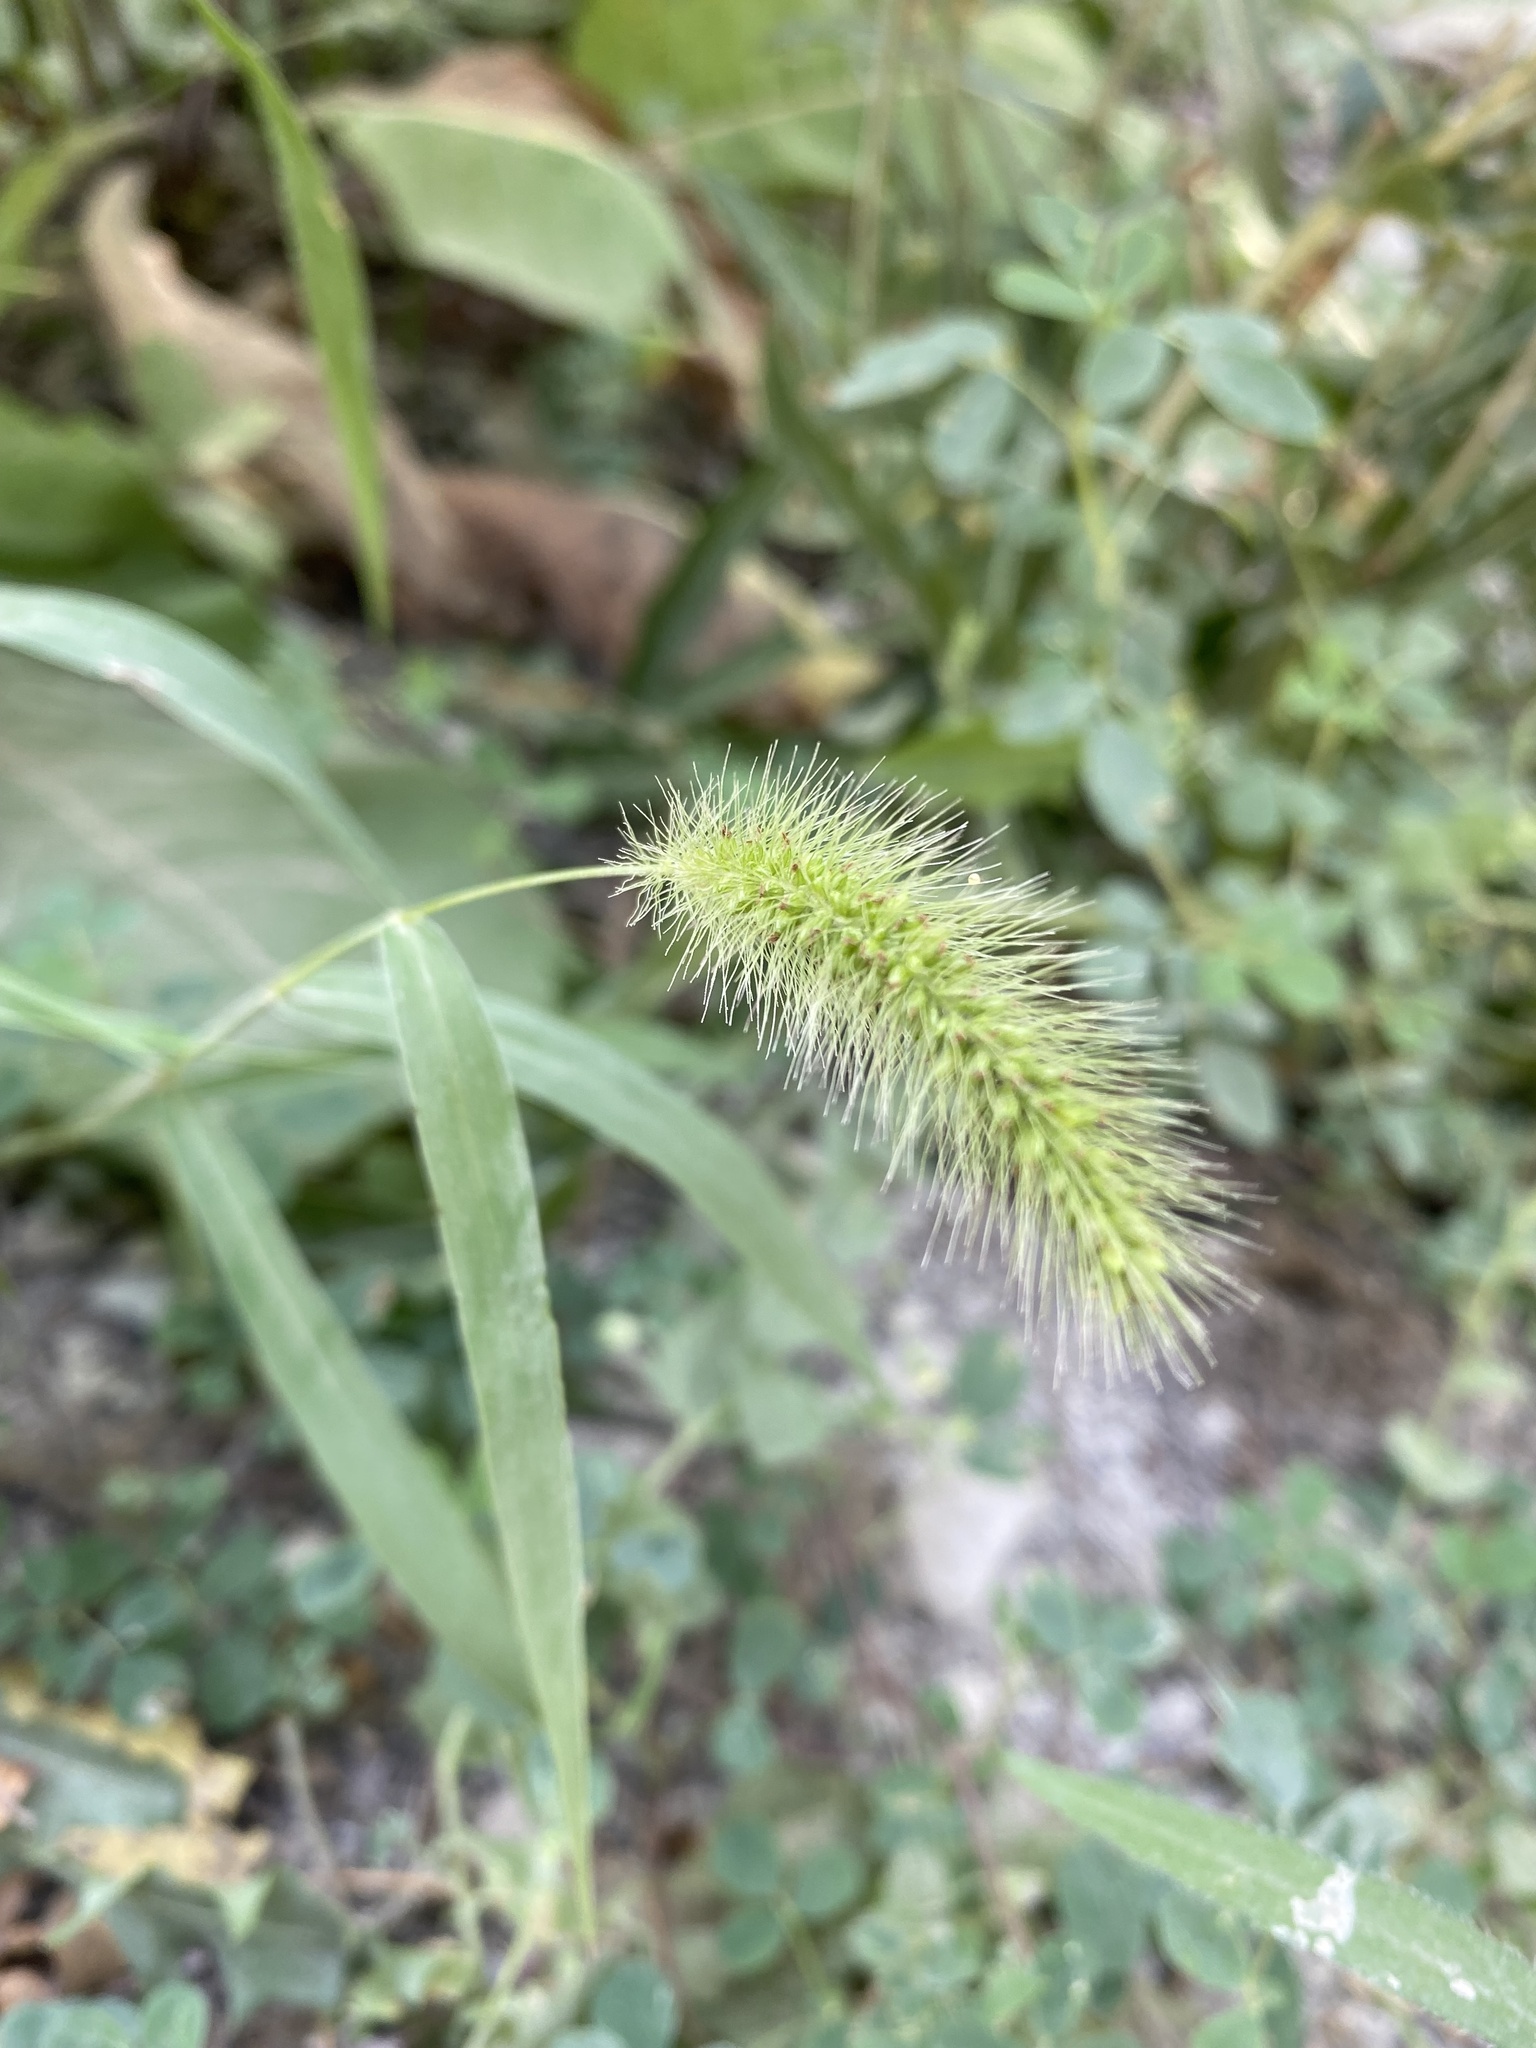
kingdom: Plantae
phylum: Tracheophyta
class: Liliopsida
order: Poales
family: Poaceae
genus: Setaria
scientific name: Setaria viridis
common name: Green bristlegrass
